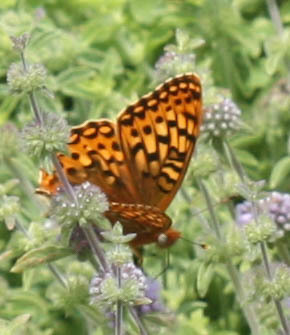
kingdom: Animalia
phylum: Arthropoda
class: Insecta
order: Lepidoptera
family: Nymphalidae
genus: Speyeria
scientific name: Speyeria zerene
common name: Zerene fritillary
